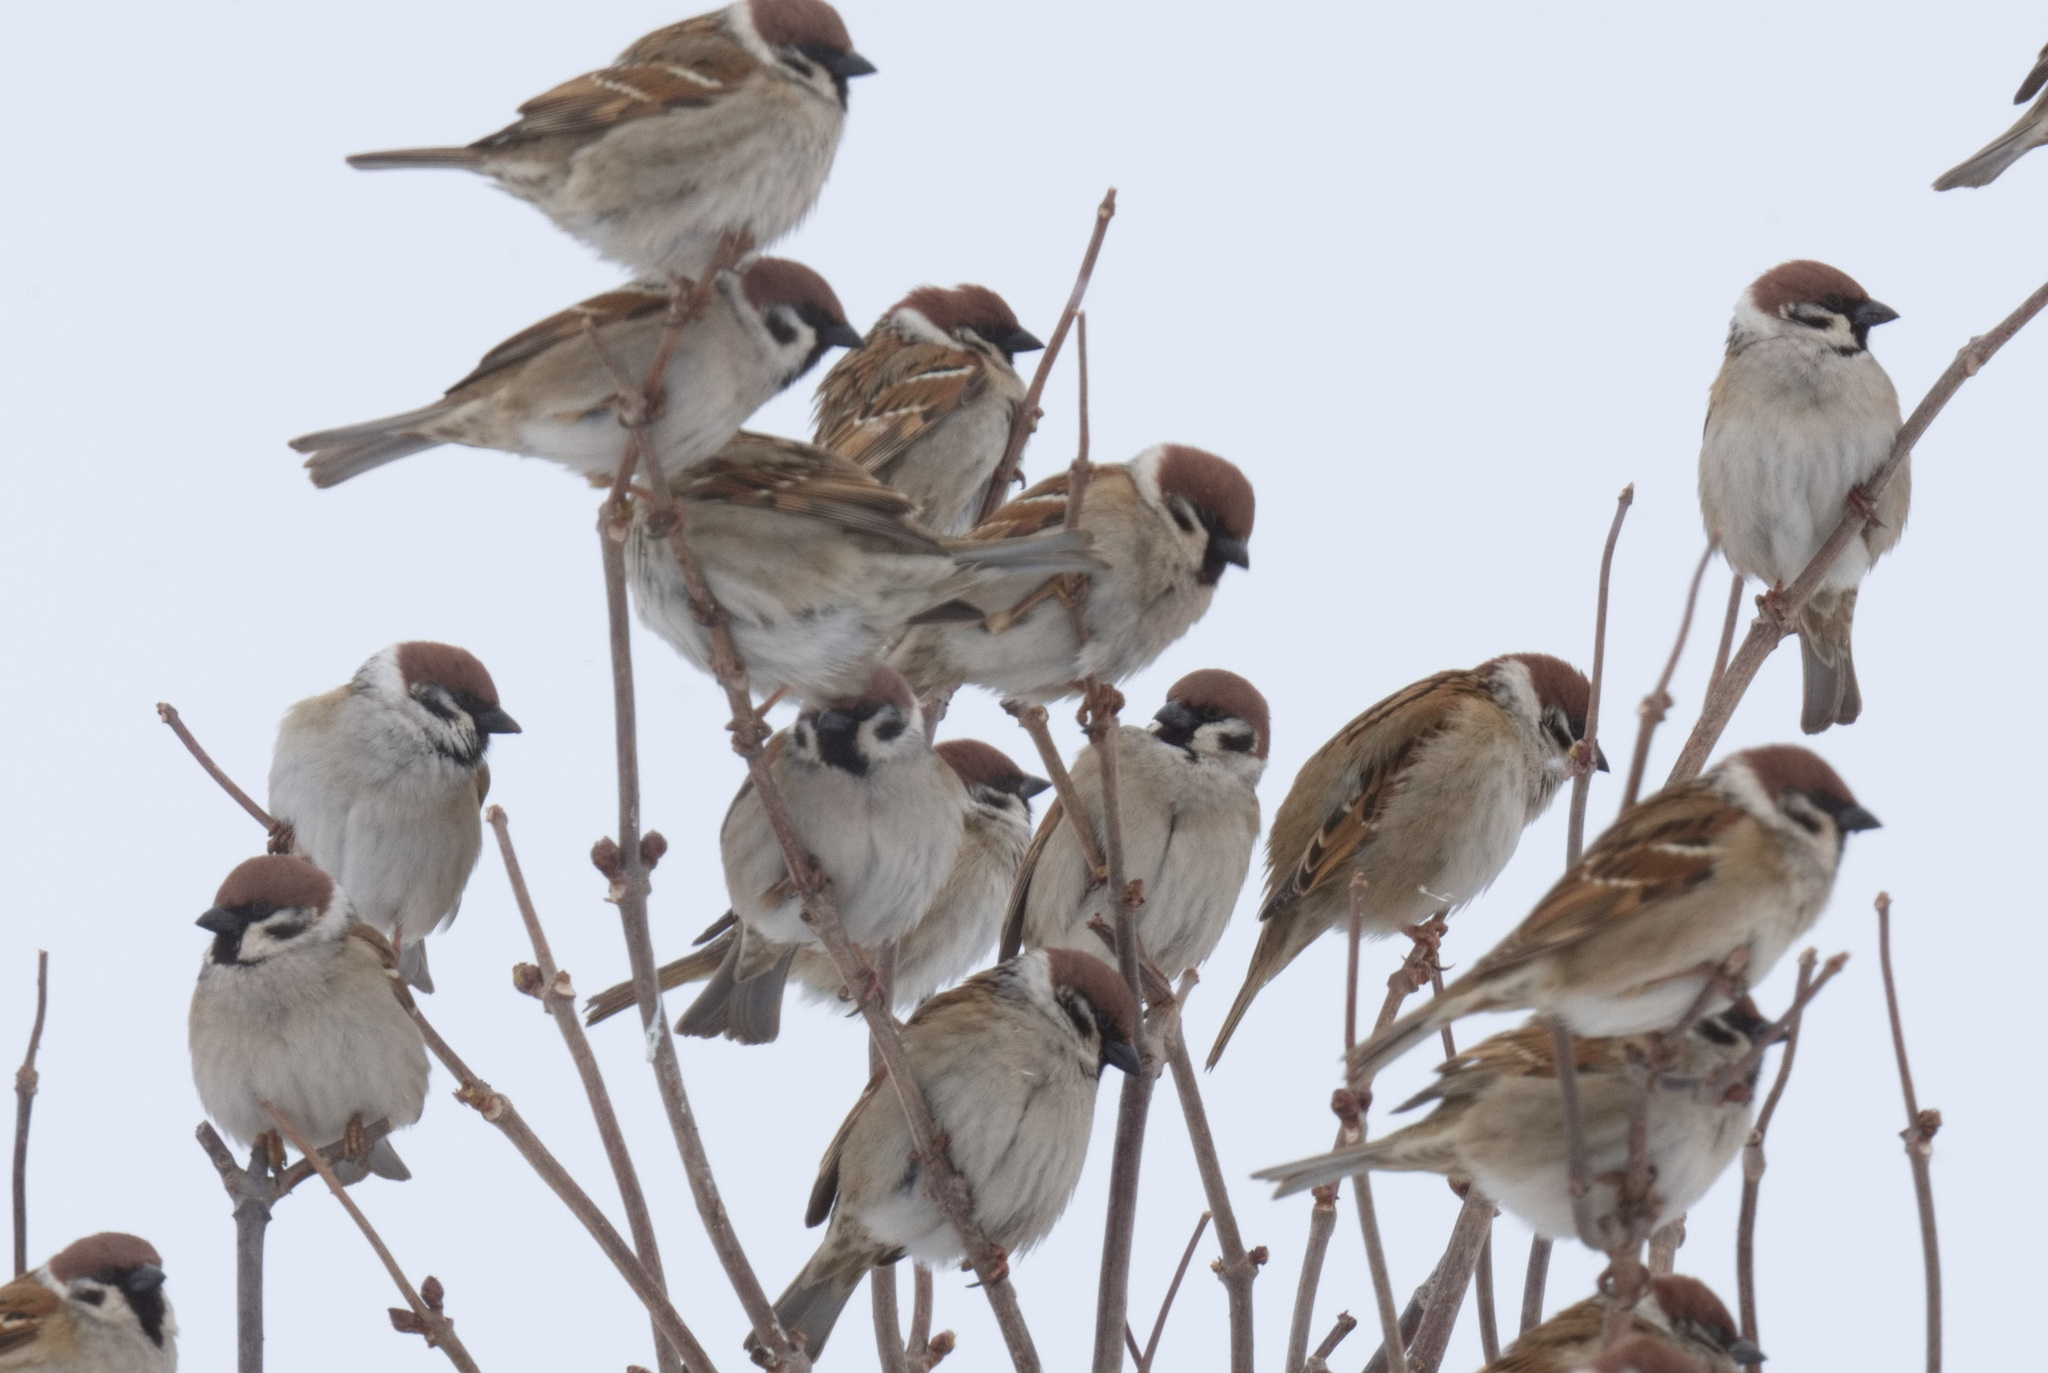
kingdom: Animalia
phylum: Chordata
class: Aves
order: Passeriformes
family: Passeridae
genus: Passer
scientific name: Passer montanus
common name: Eurasian tree sparrow
